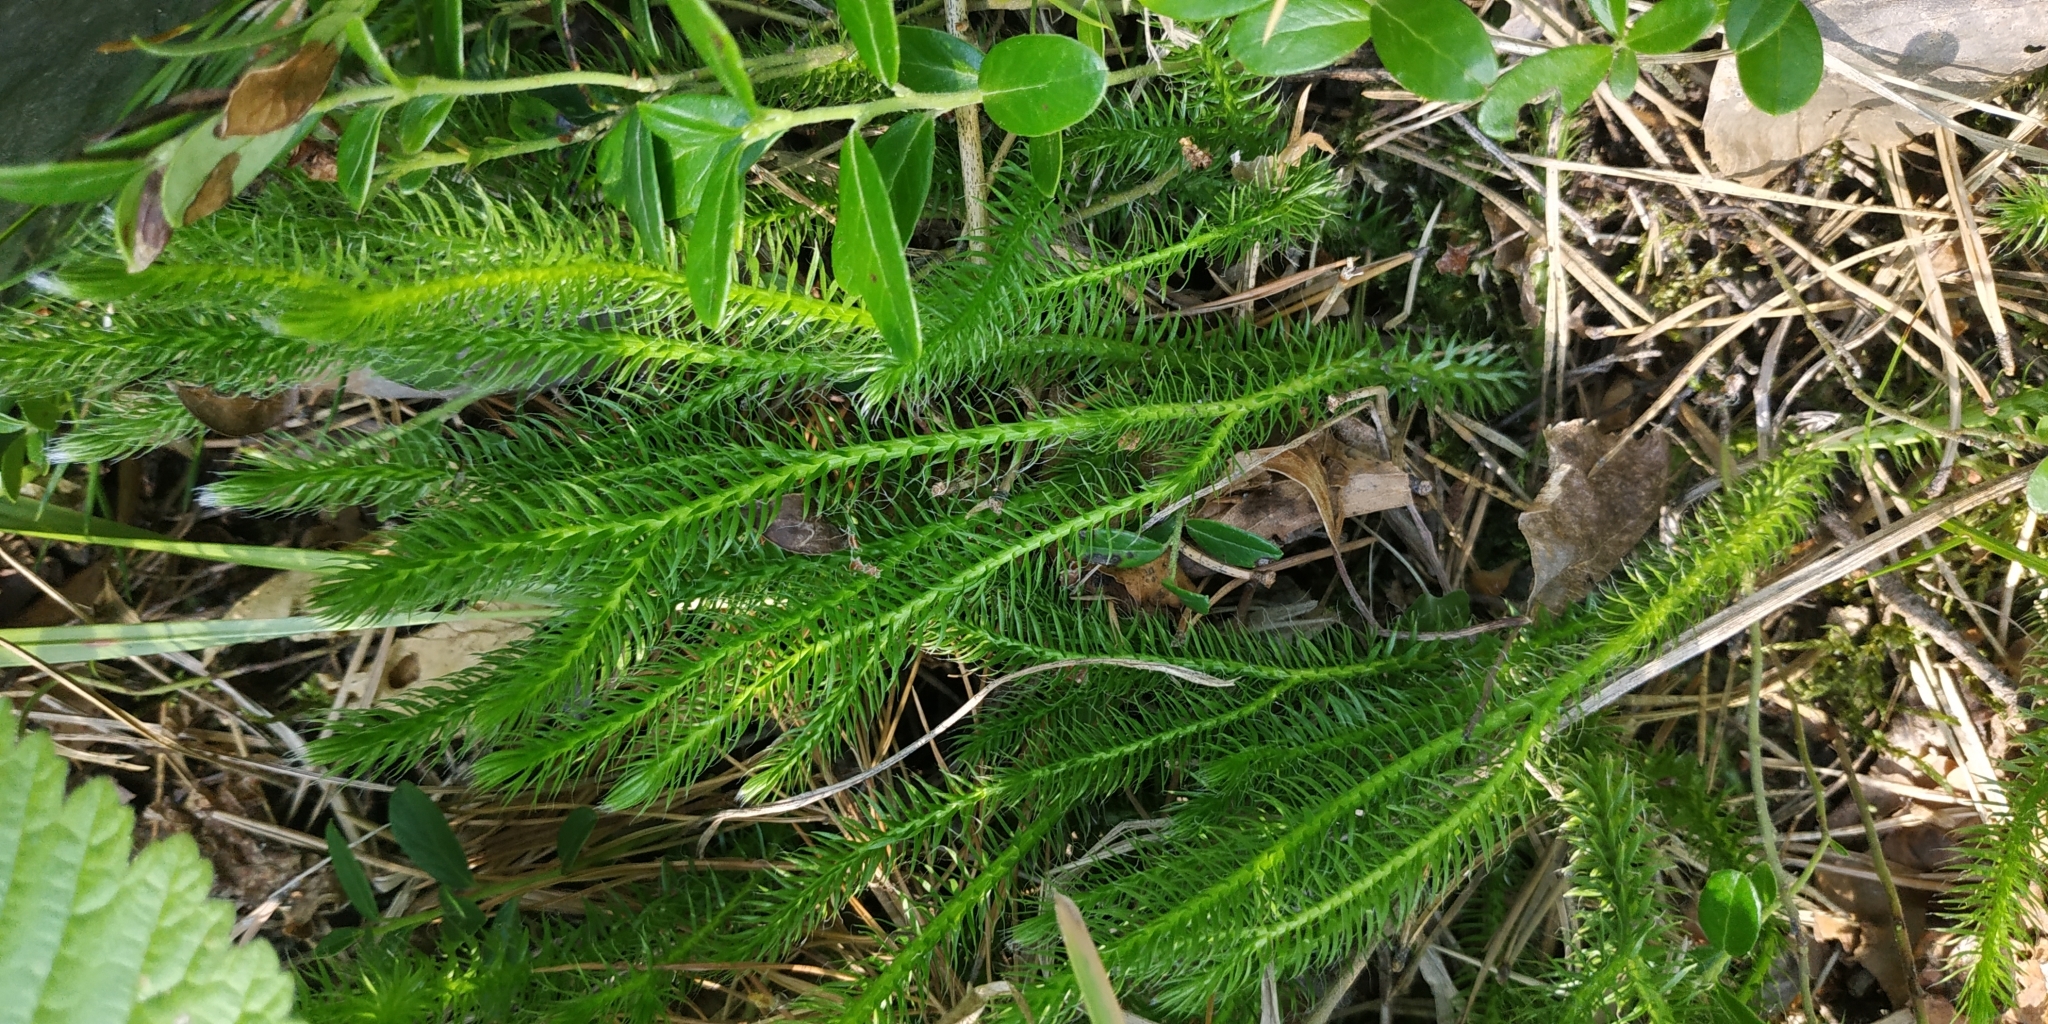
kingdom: Plantae
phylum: Tracheophyta
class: Lycopodiopsida
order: Lycopodiales
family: Lycopodiaceae
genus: Lycopodium
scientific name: Lycopodium clavatum
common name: Stag's-horn clubmoss
